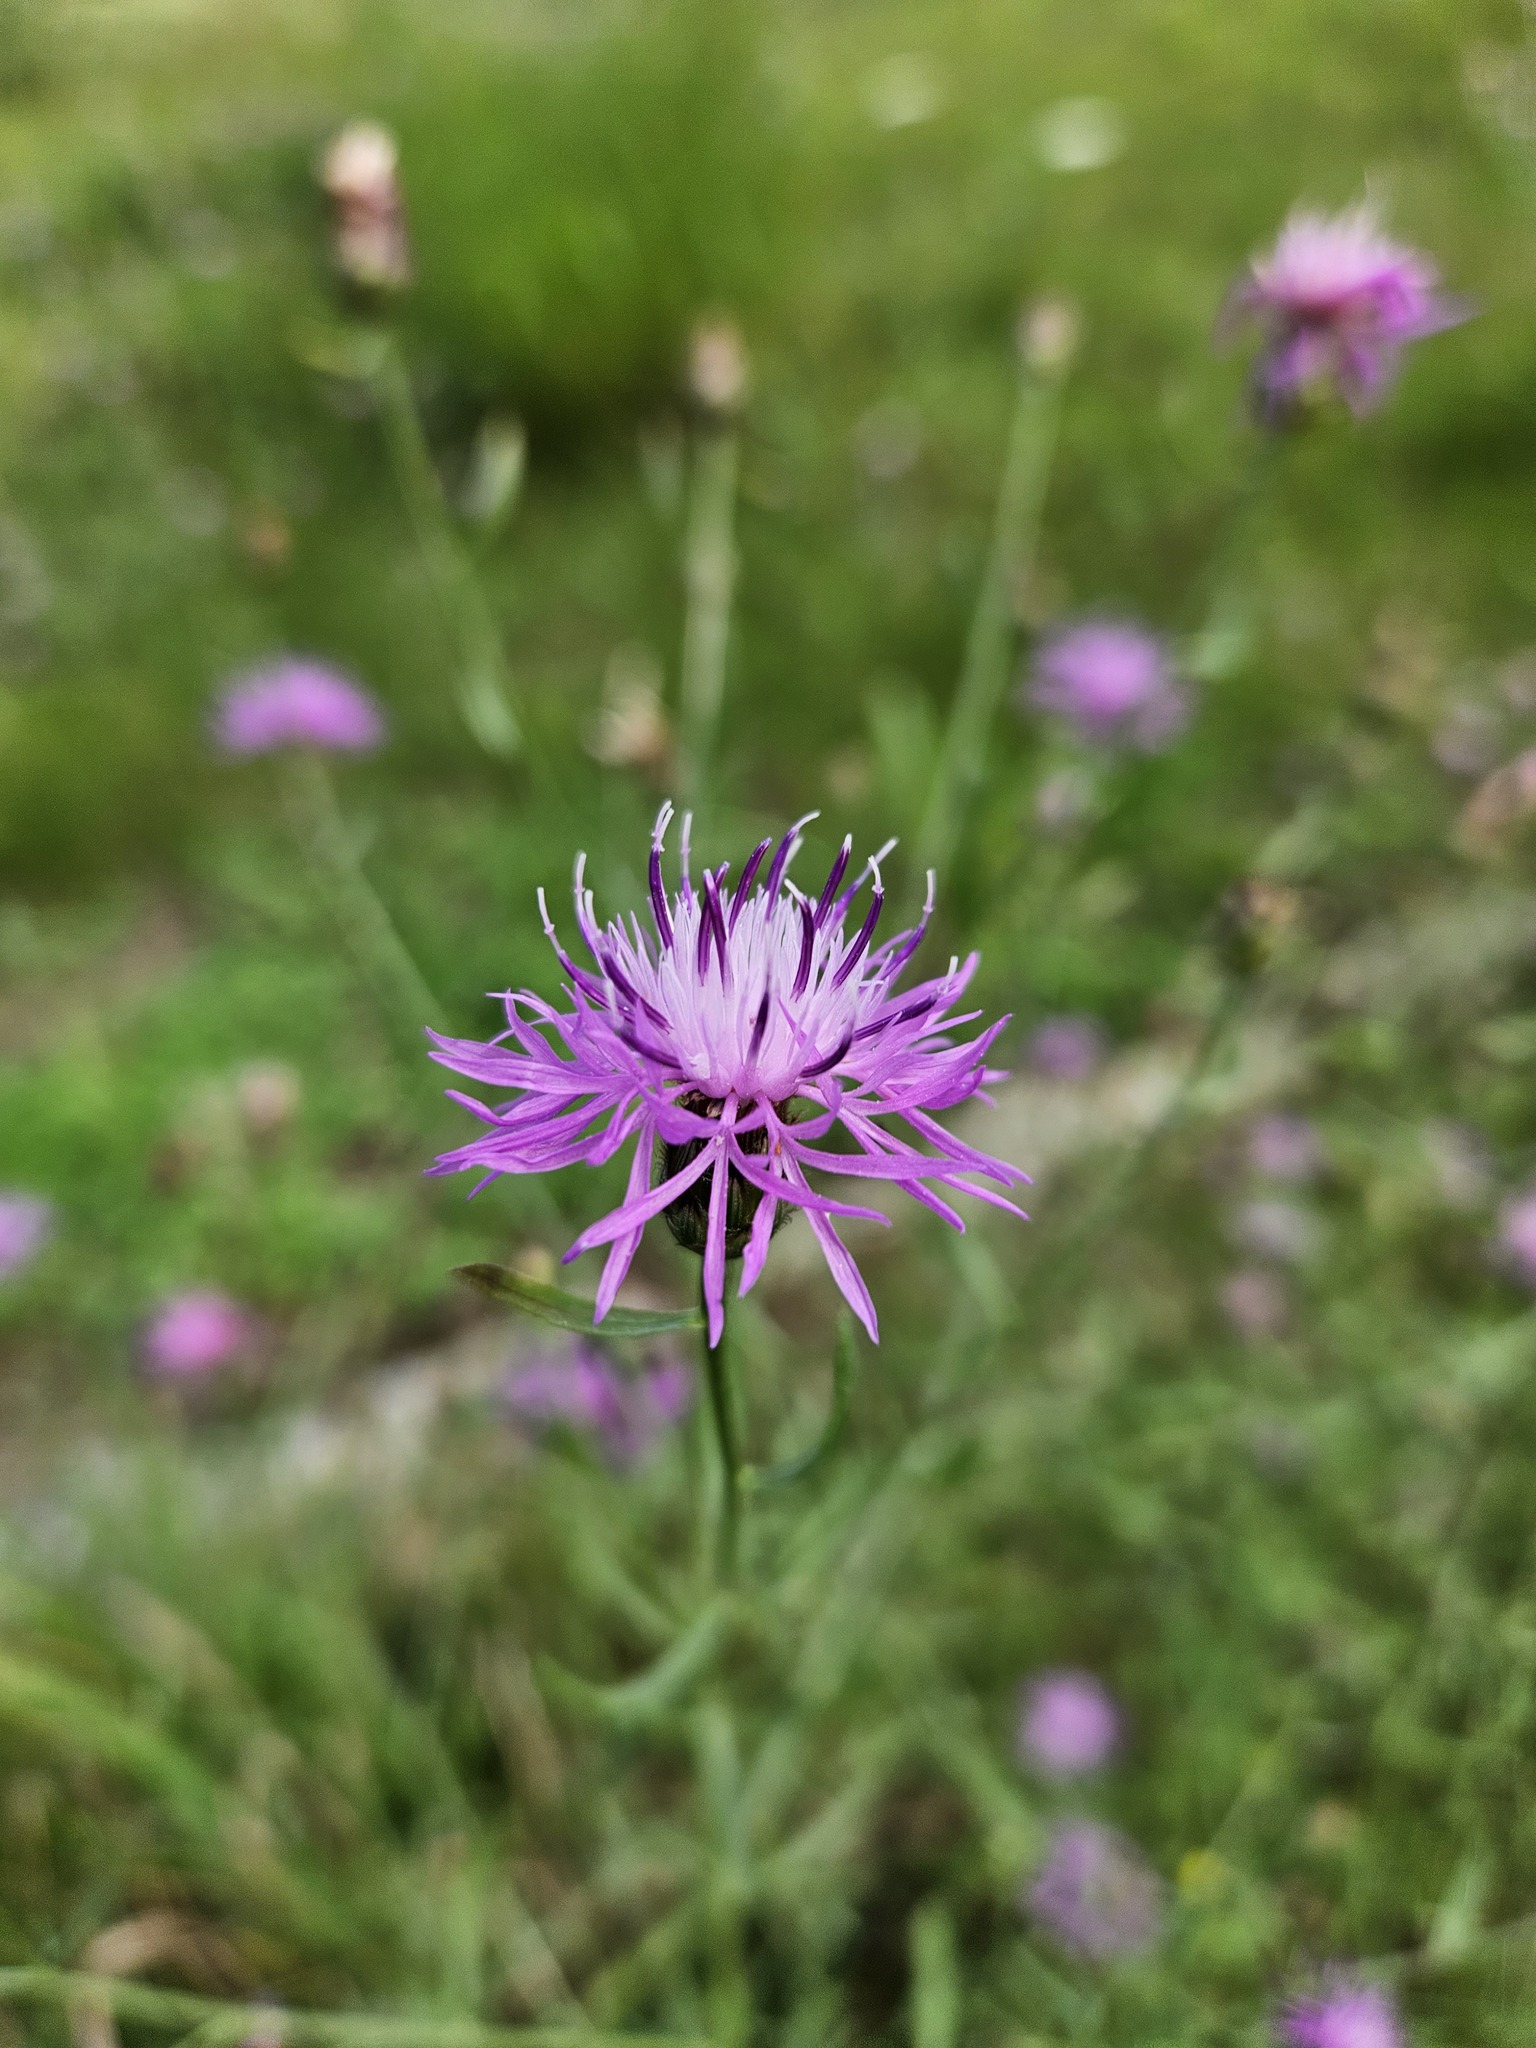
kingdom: Plantae
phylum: Tracheophyta
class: Magnoliopsida
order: Asterales
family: Asteraceae
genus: Centaurea
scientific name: Centaurea stoebe
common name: Spotted knapweed
